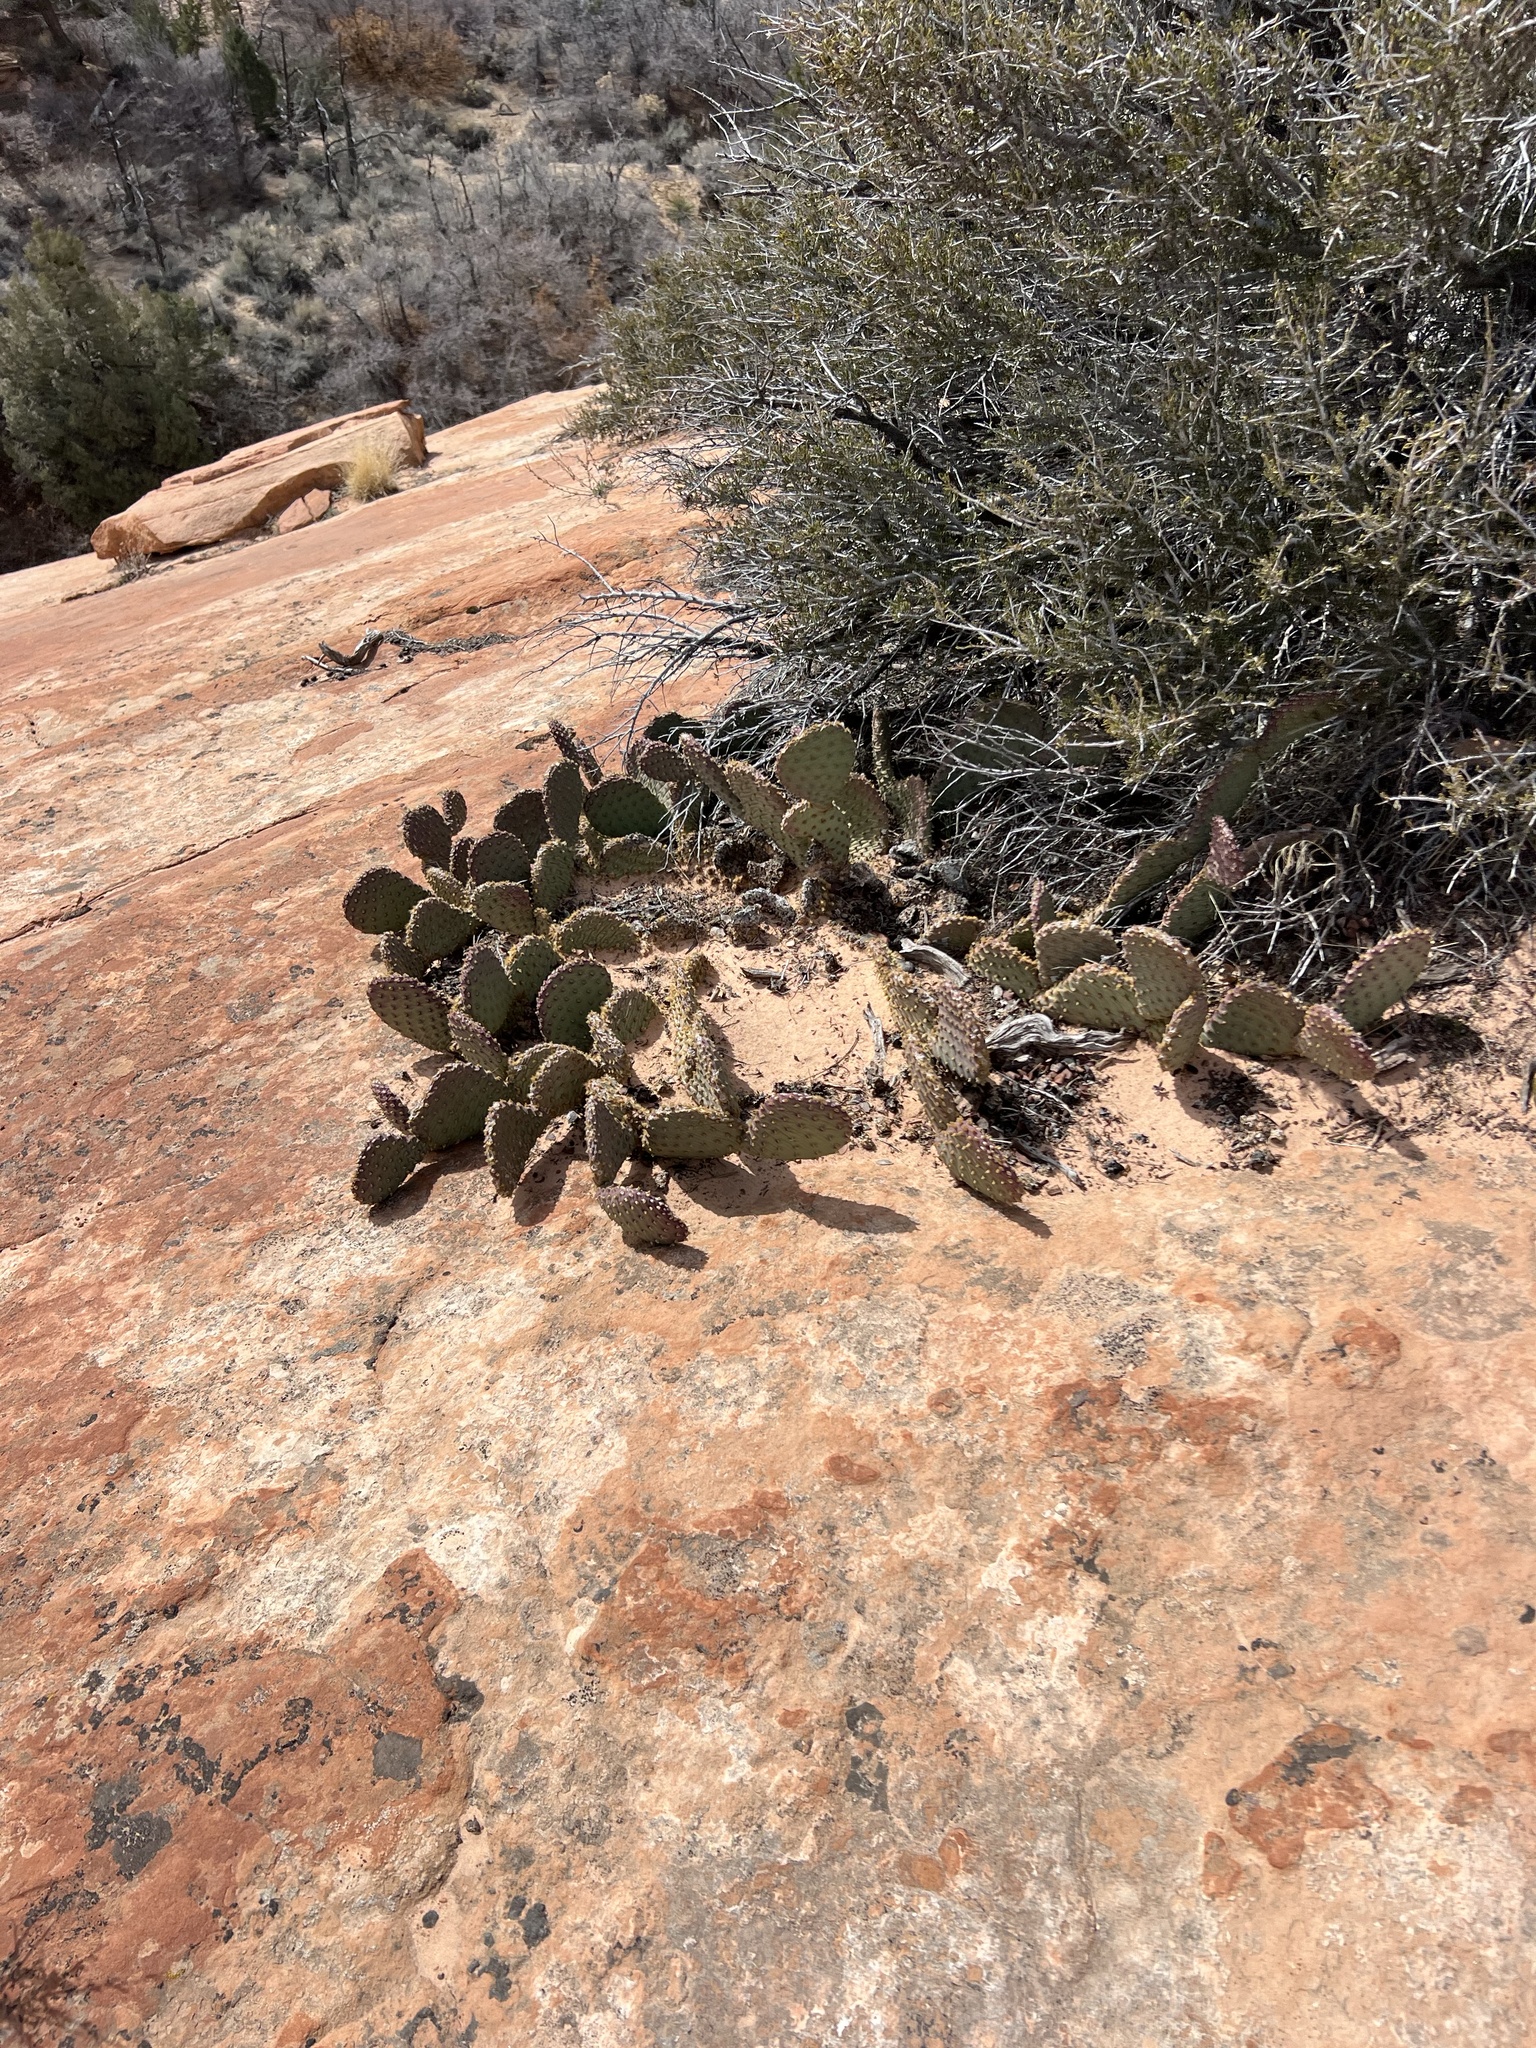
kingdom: Plantae
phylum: Tracheophyta
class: Magnoliopsida
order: Caryophyllales
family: Cactaceae
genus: Opuntia
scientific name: Opuntia aurea
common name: Golden prickly-pear
